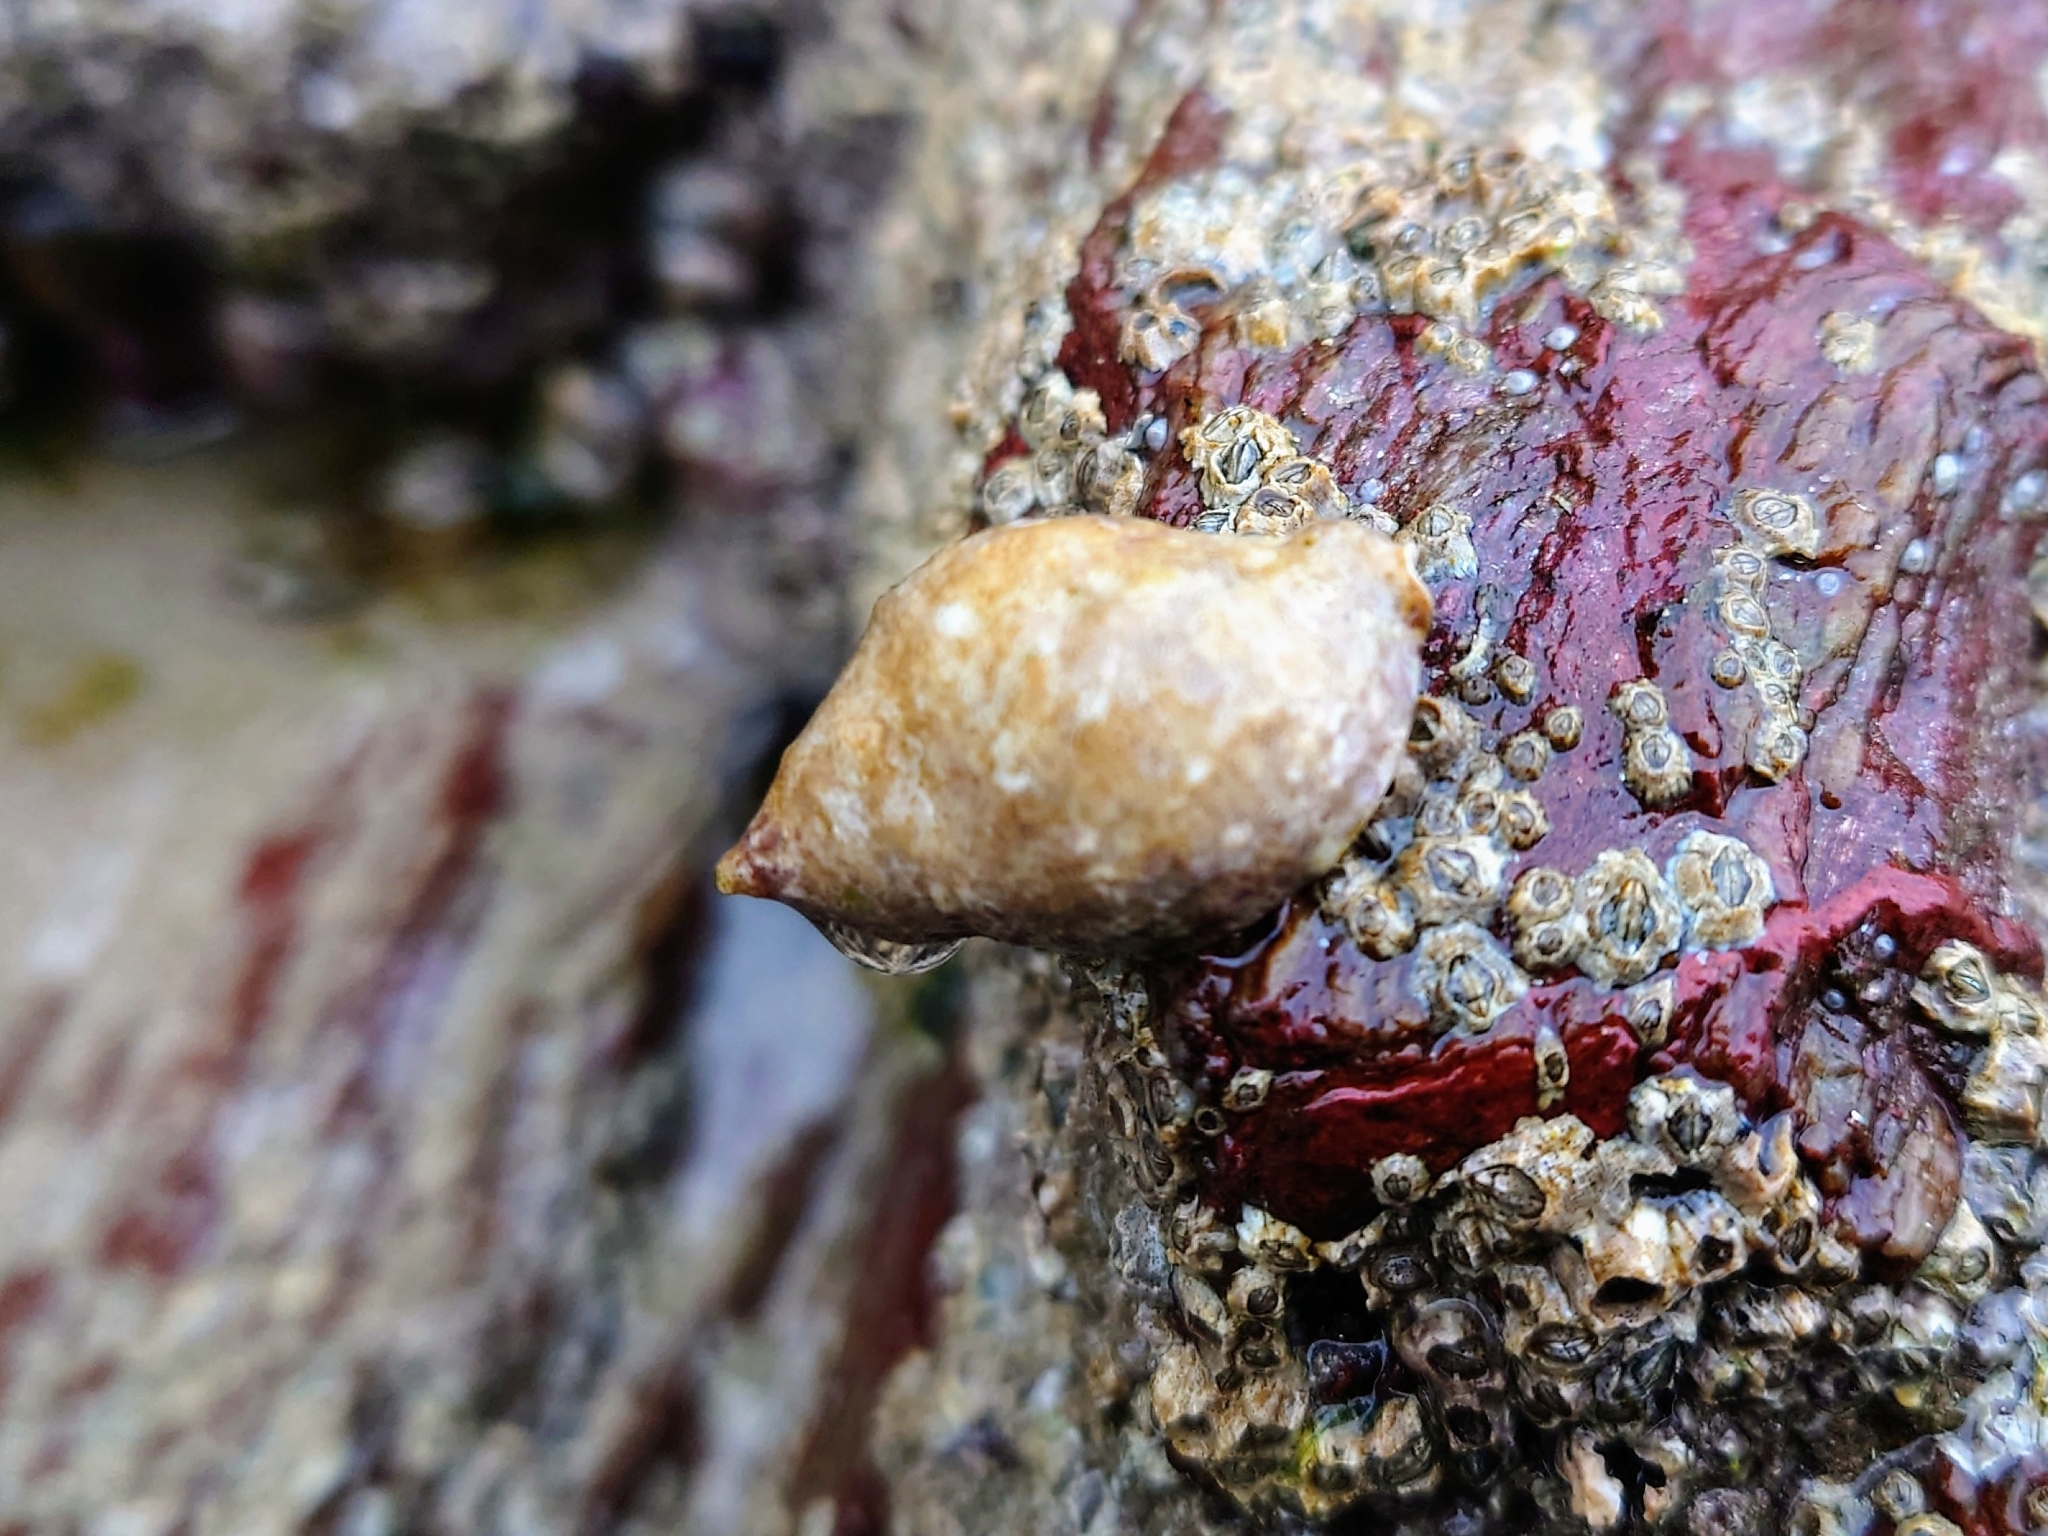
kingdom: Animalia
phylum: Mollusca
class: Gastropoda
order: Neogastropoda
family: Muricidae
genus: Nucella
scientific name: Nucella lapillus
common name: Dog whelk
